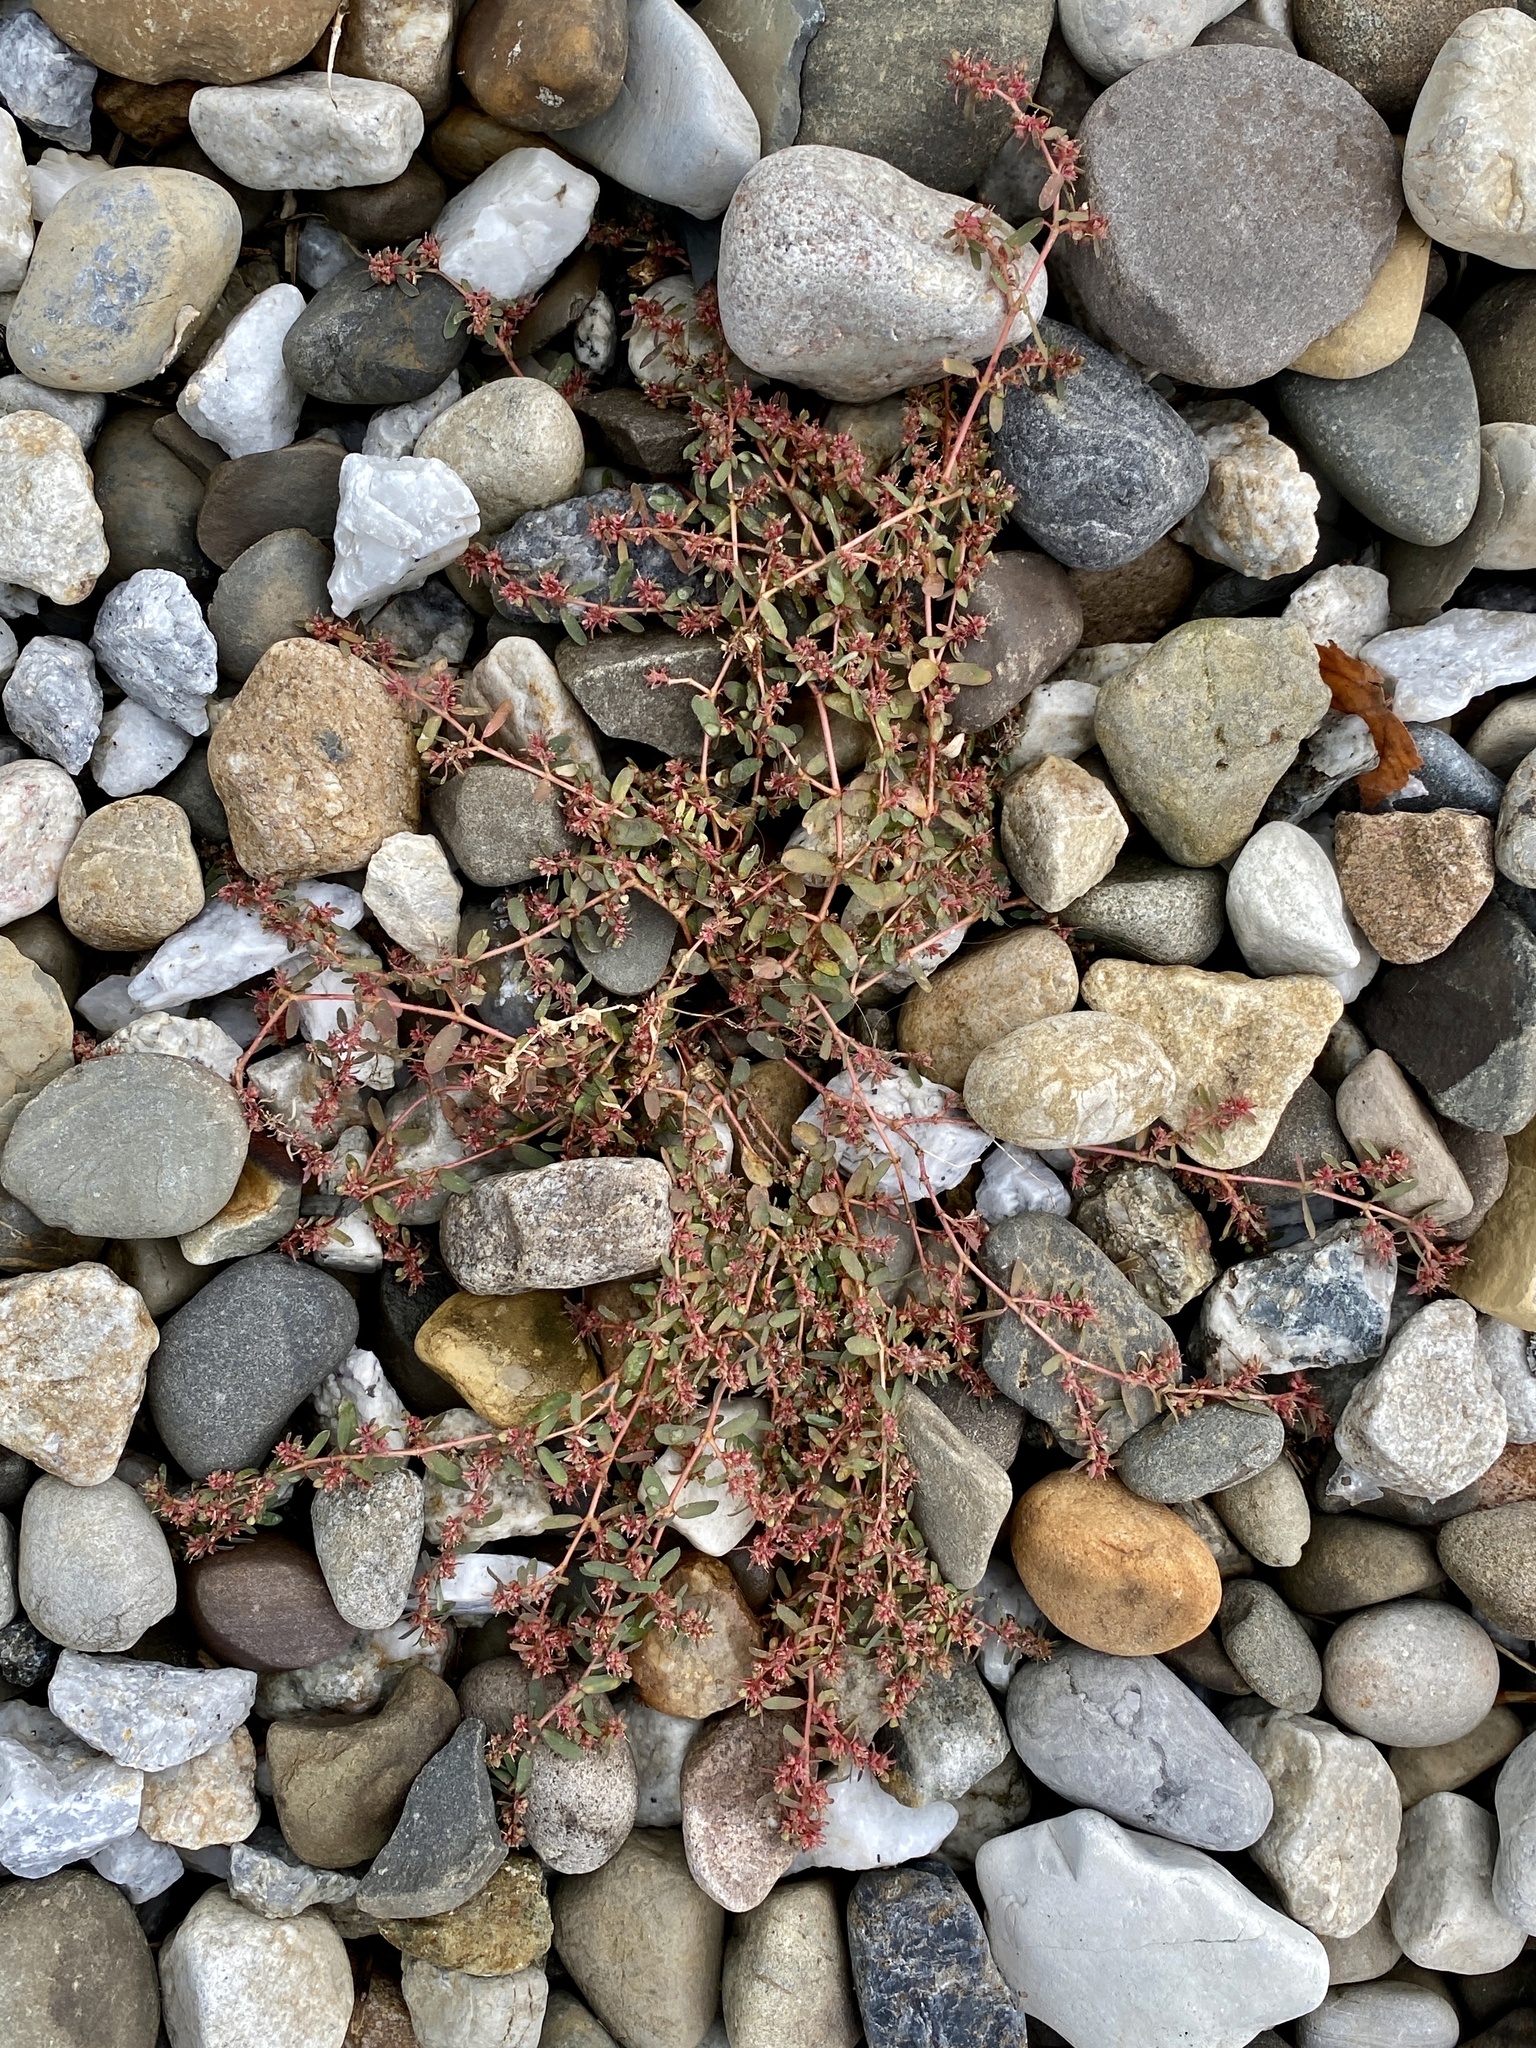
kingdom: Plantae
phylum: Tracheophyta
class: Magnoliopsida
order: Malpighiales
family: Euphorbiaceae
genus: Euphorbia
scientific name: Euphorbia maculata
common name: Spotted spurge
